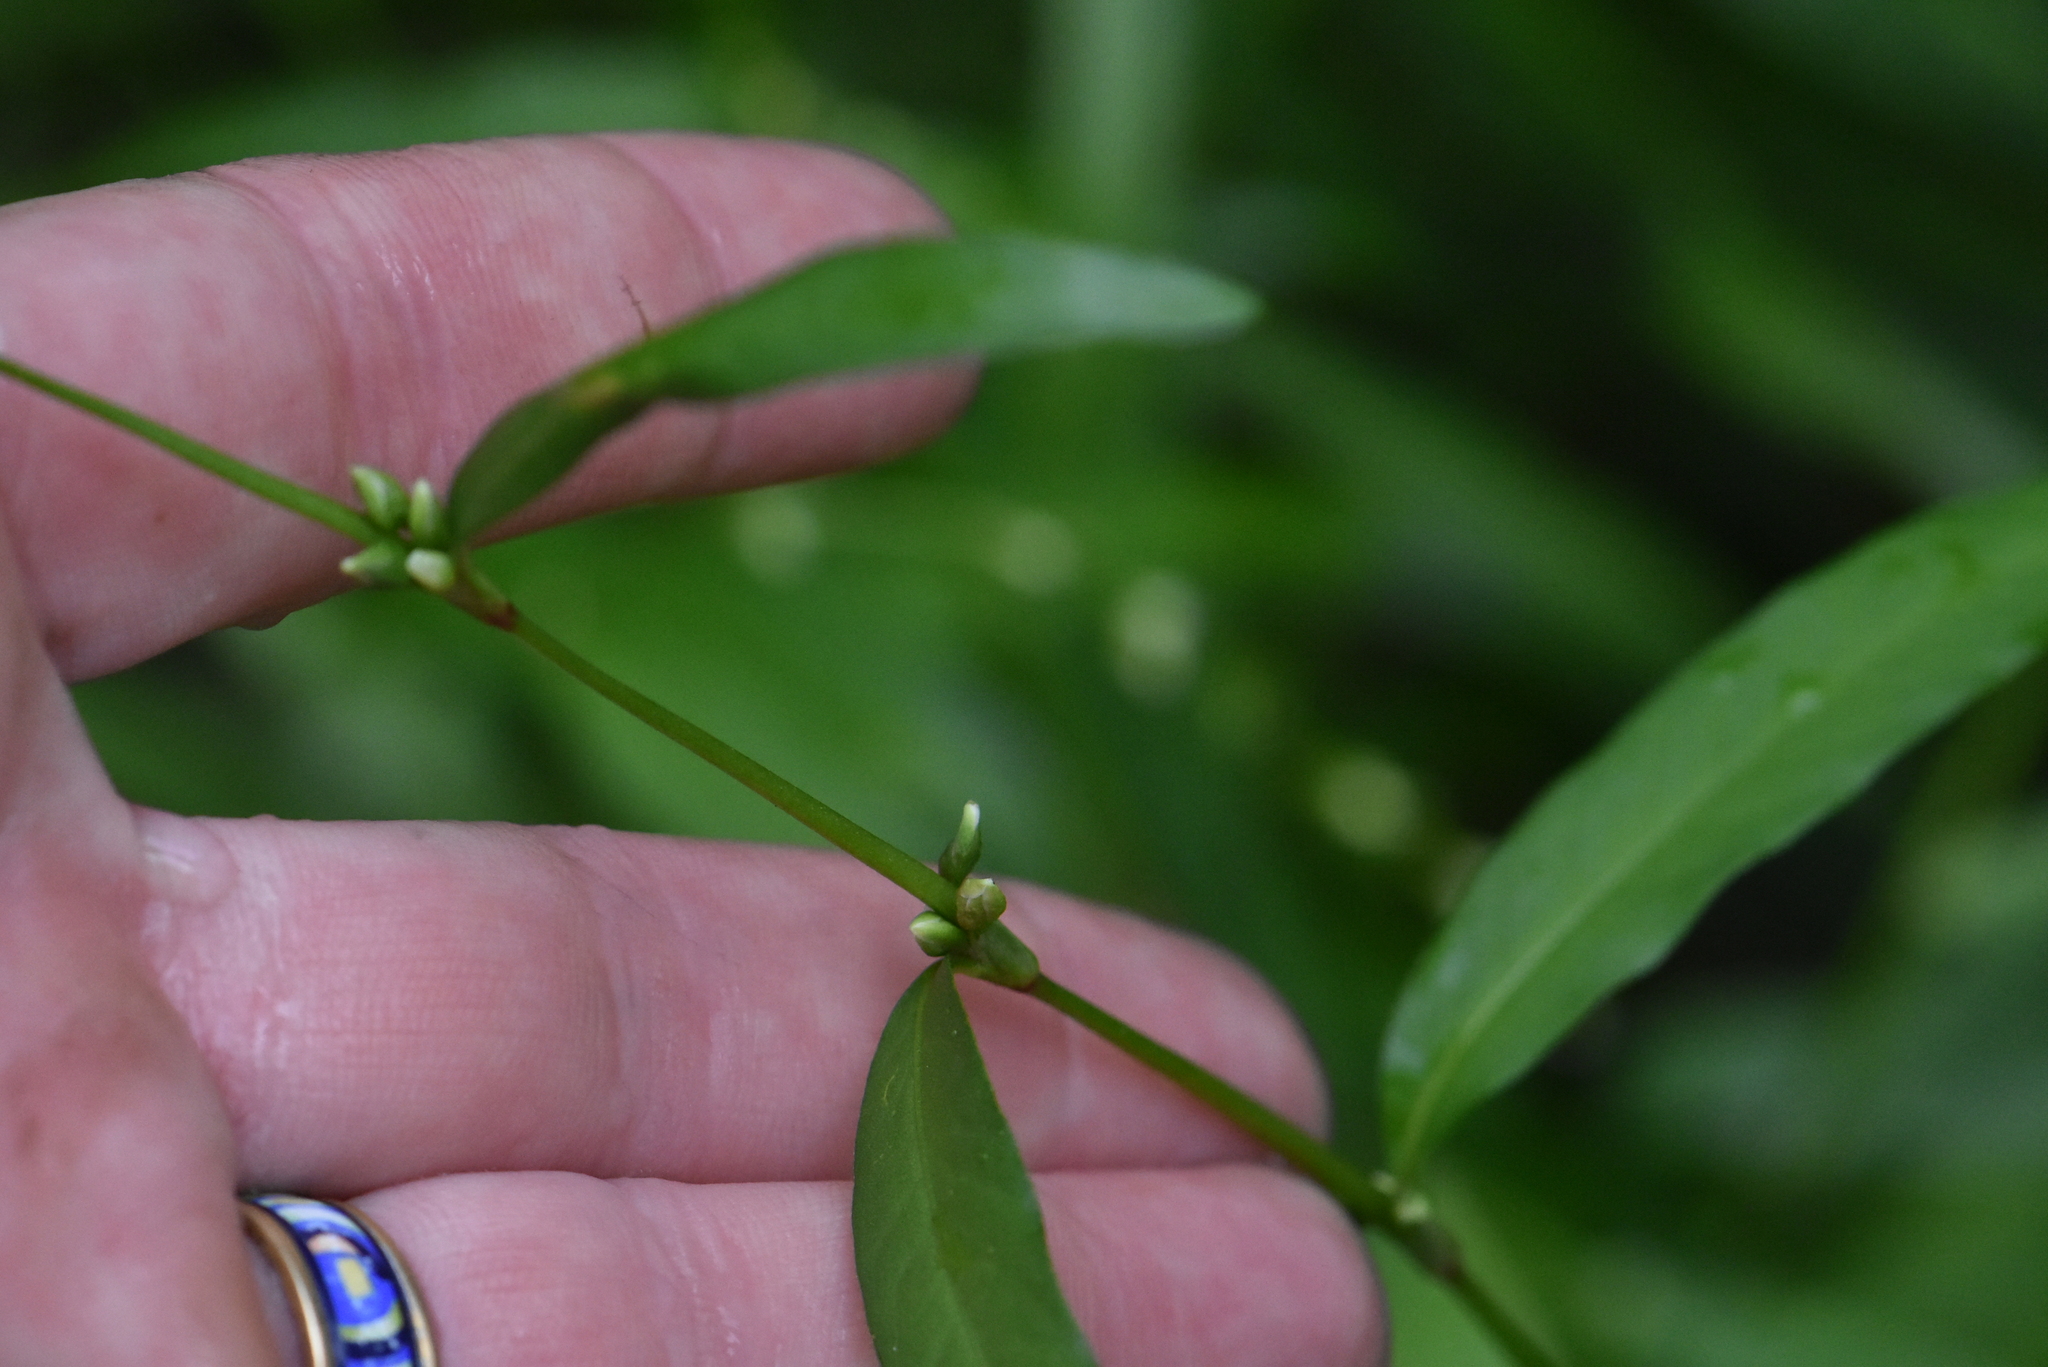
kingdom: Plantae
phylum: Tracheophyta
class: Magnoliopsida
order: Caryophyllales
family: Polygonaceae
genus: Persicaria
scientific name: Persicaria hydropiper
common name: Water-pepper
